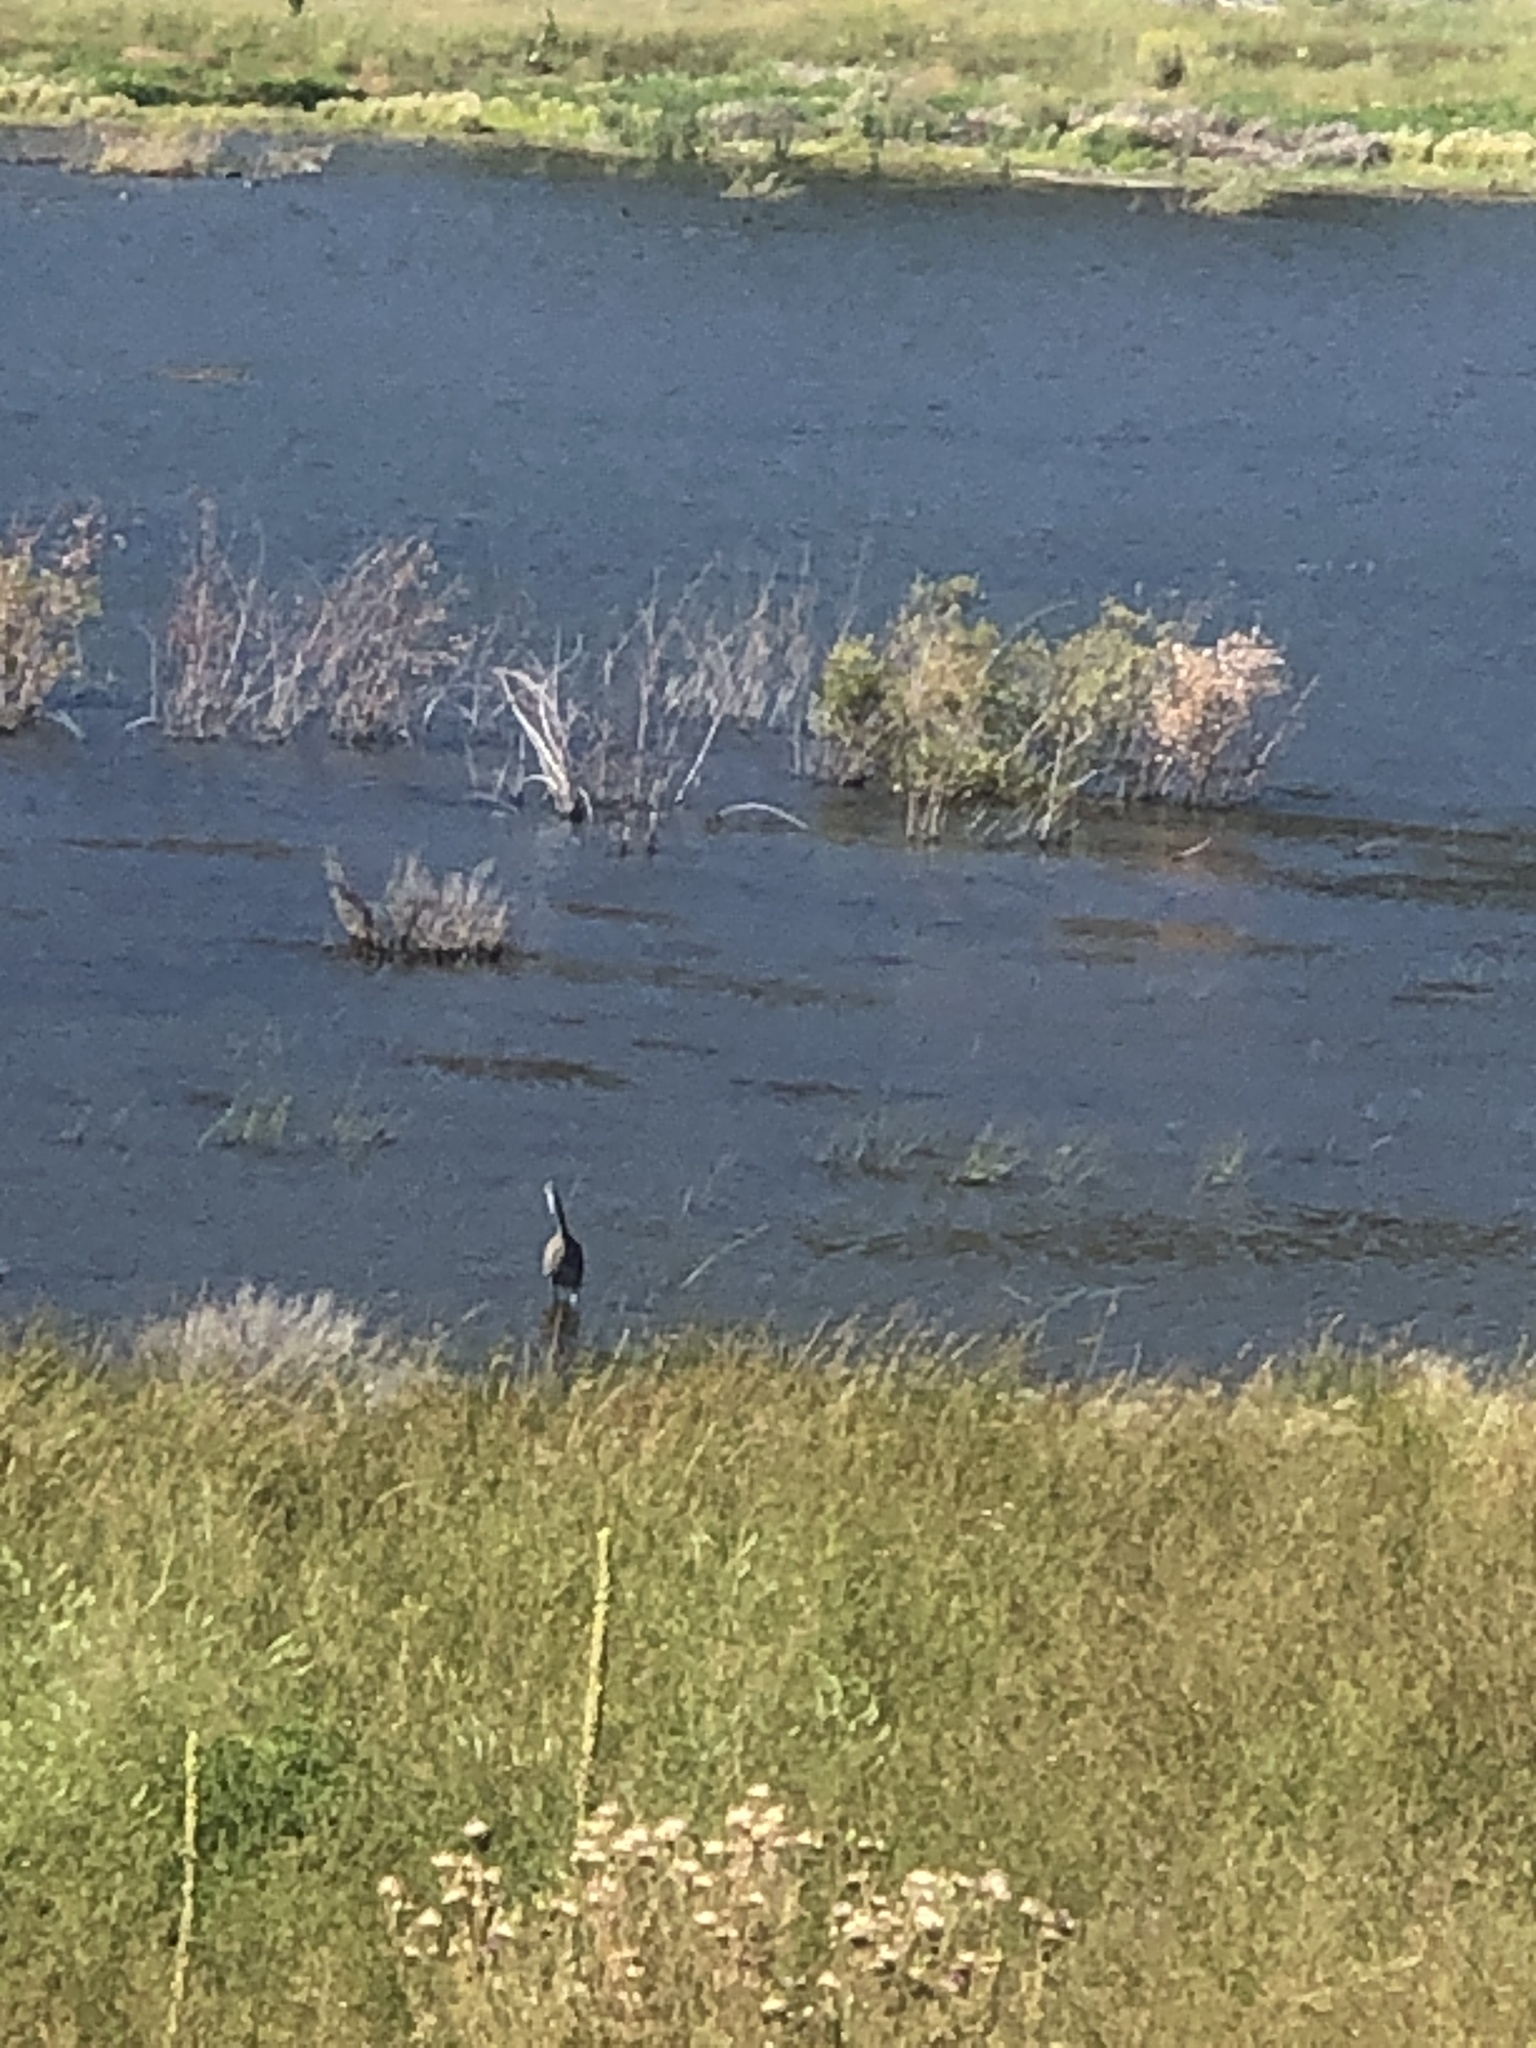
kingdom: Animalia
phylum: Chordata
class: Aves
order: Pelecaniformes
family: Ardeidae
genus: Ardea
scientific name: Ardea herodias
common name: Great blue heron
